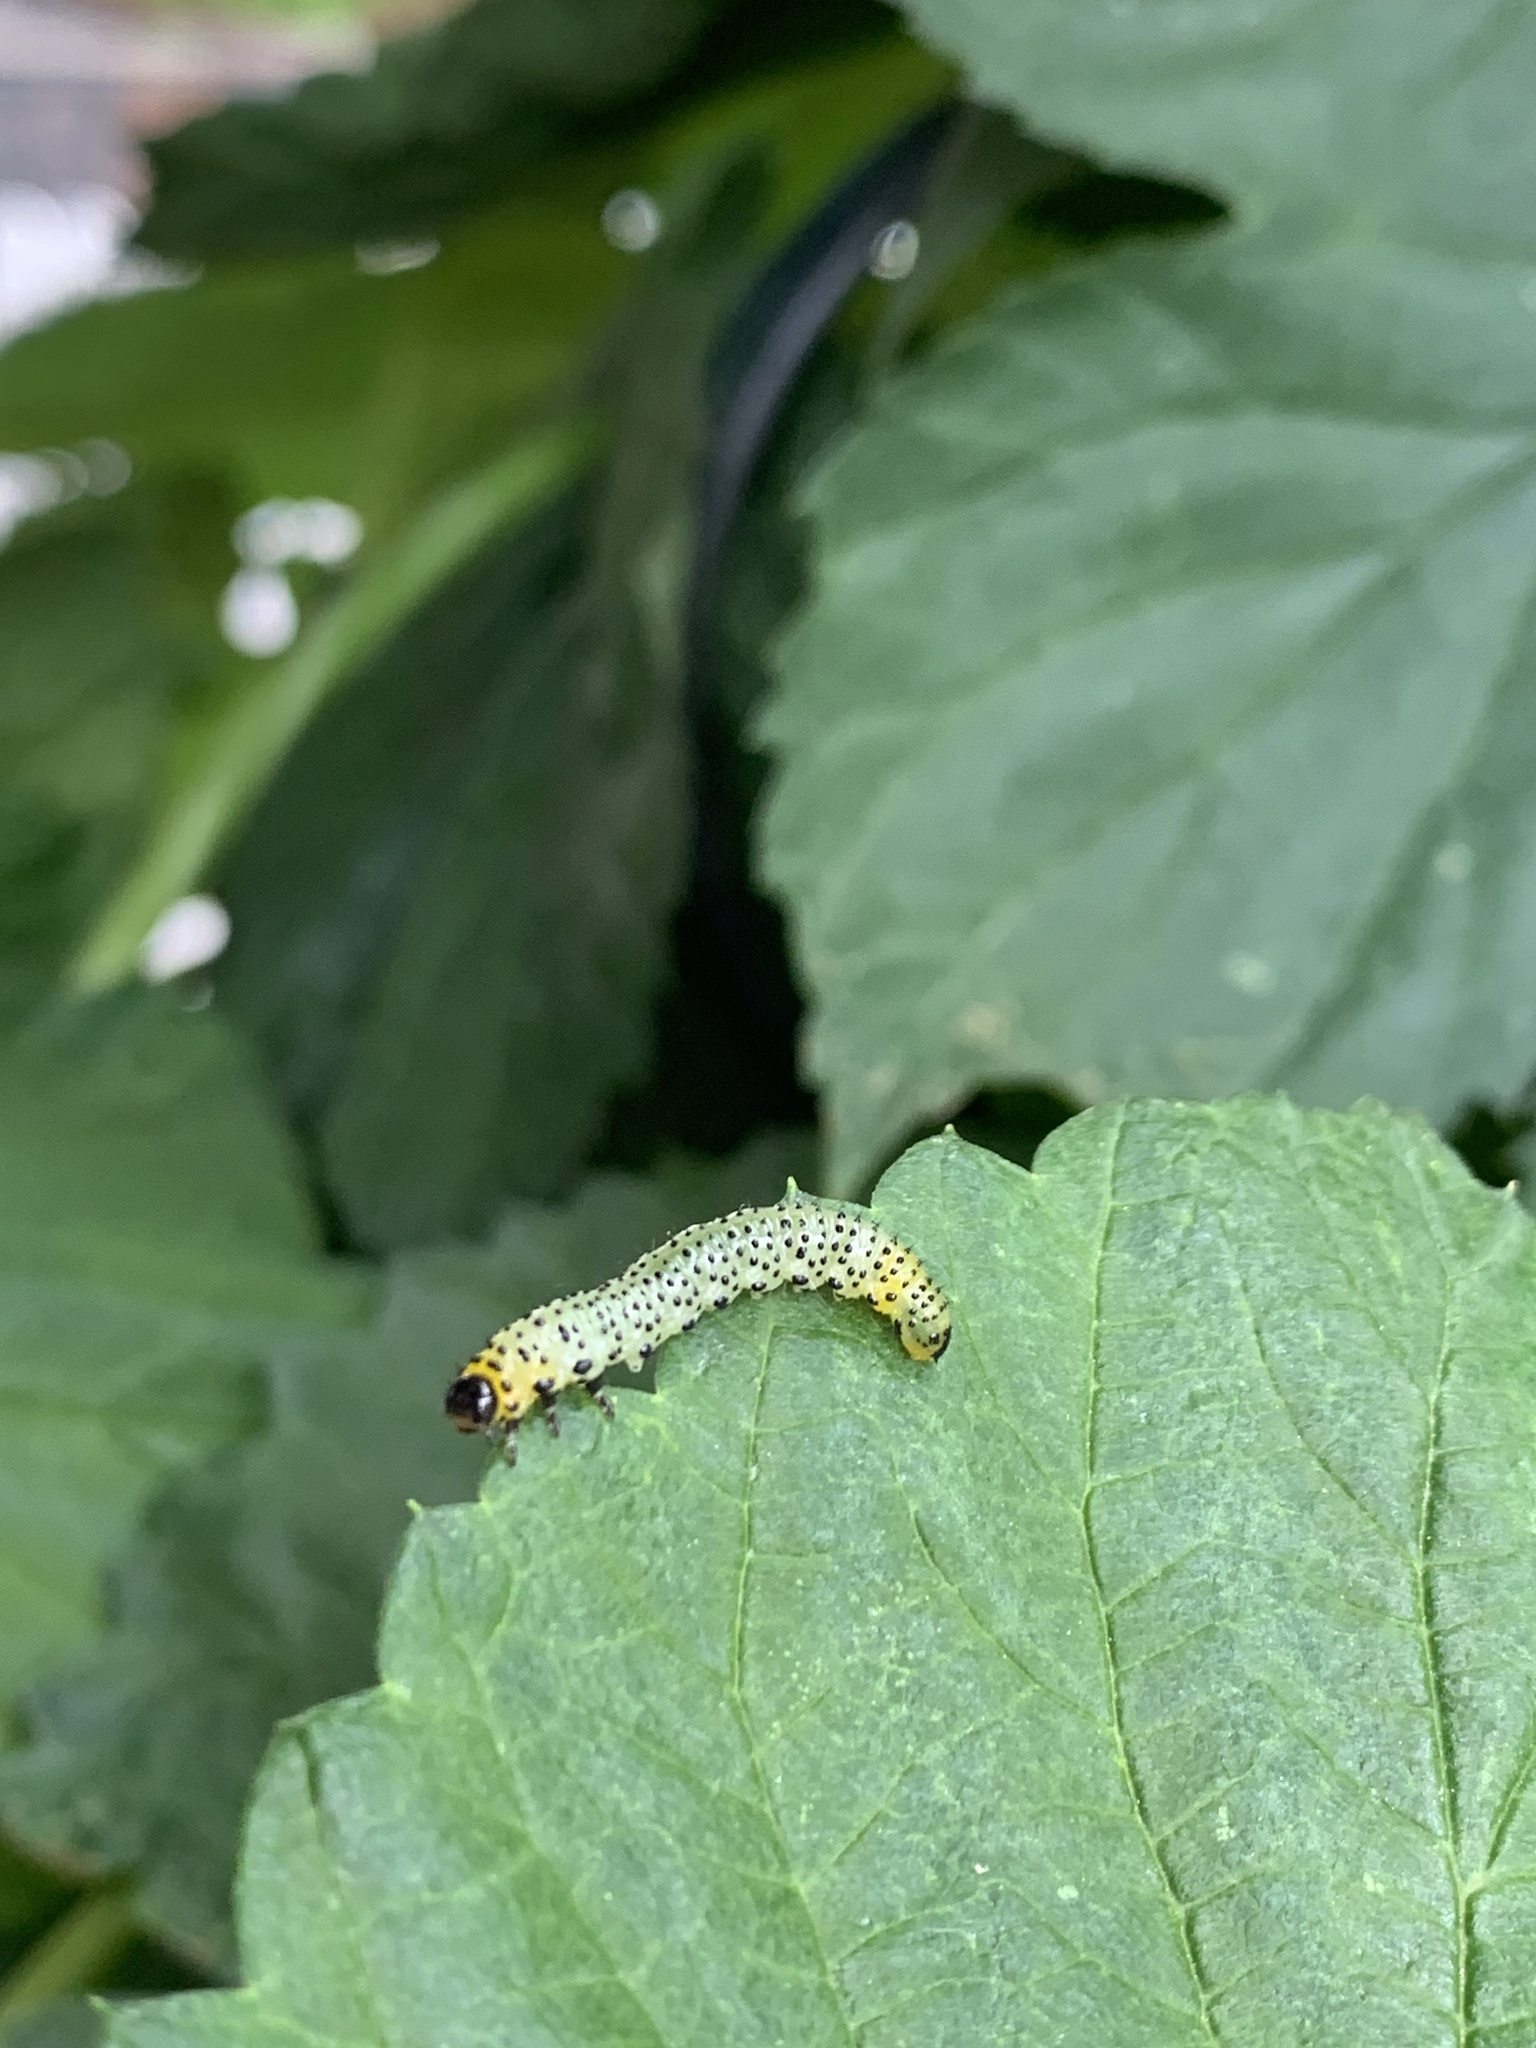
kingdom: Animalia
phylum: Arthropoda
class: Insecta
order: Hymenoptera
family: Tenthredinidae
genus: Nematus
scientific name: Nematus ribesii
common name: Imported currantworm
